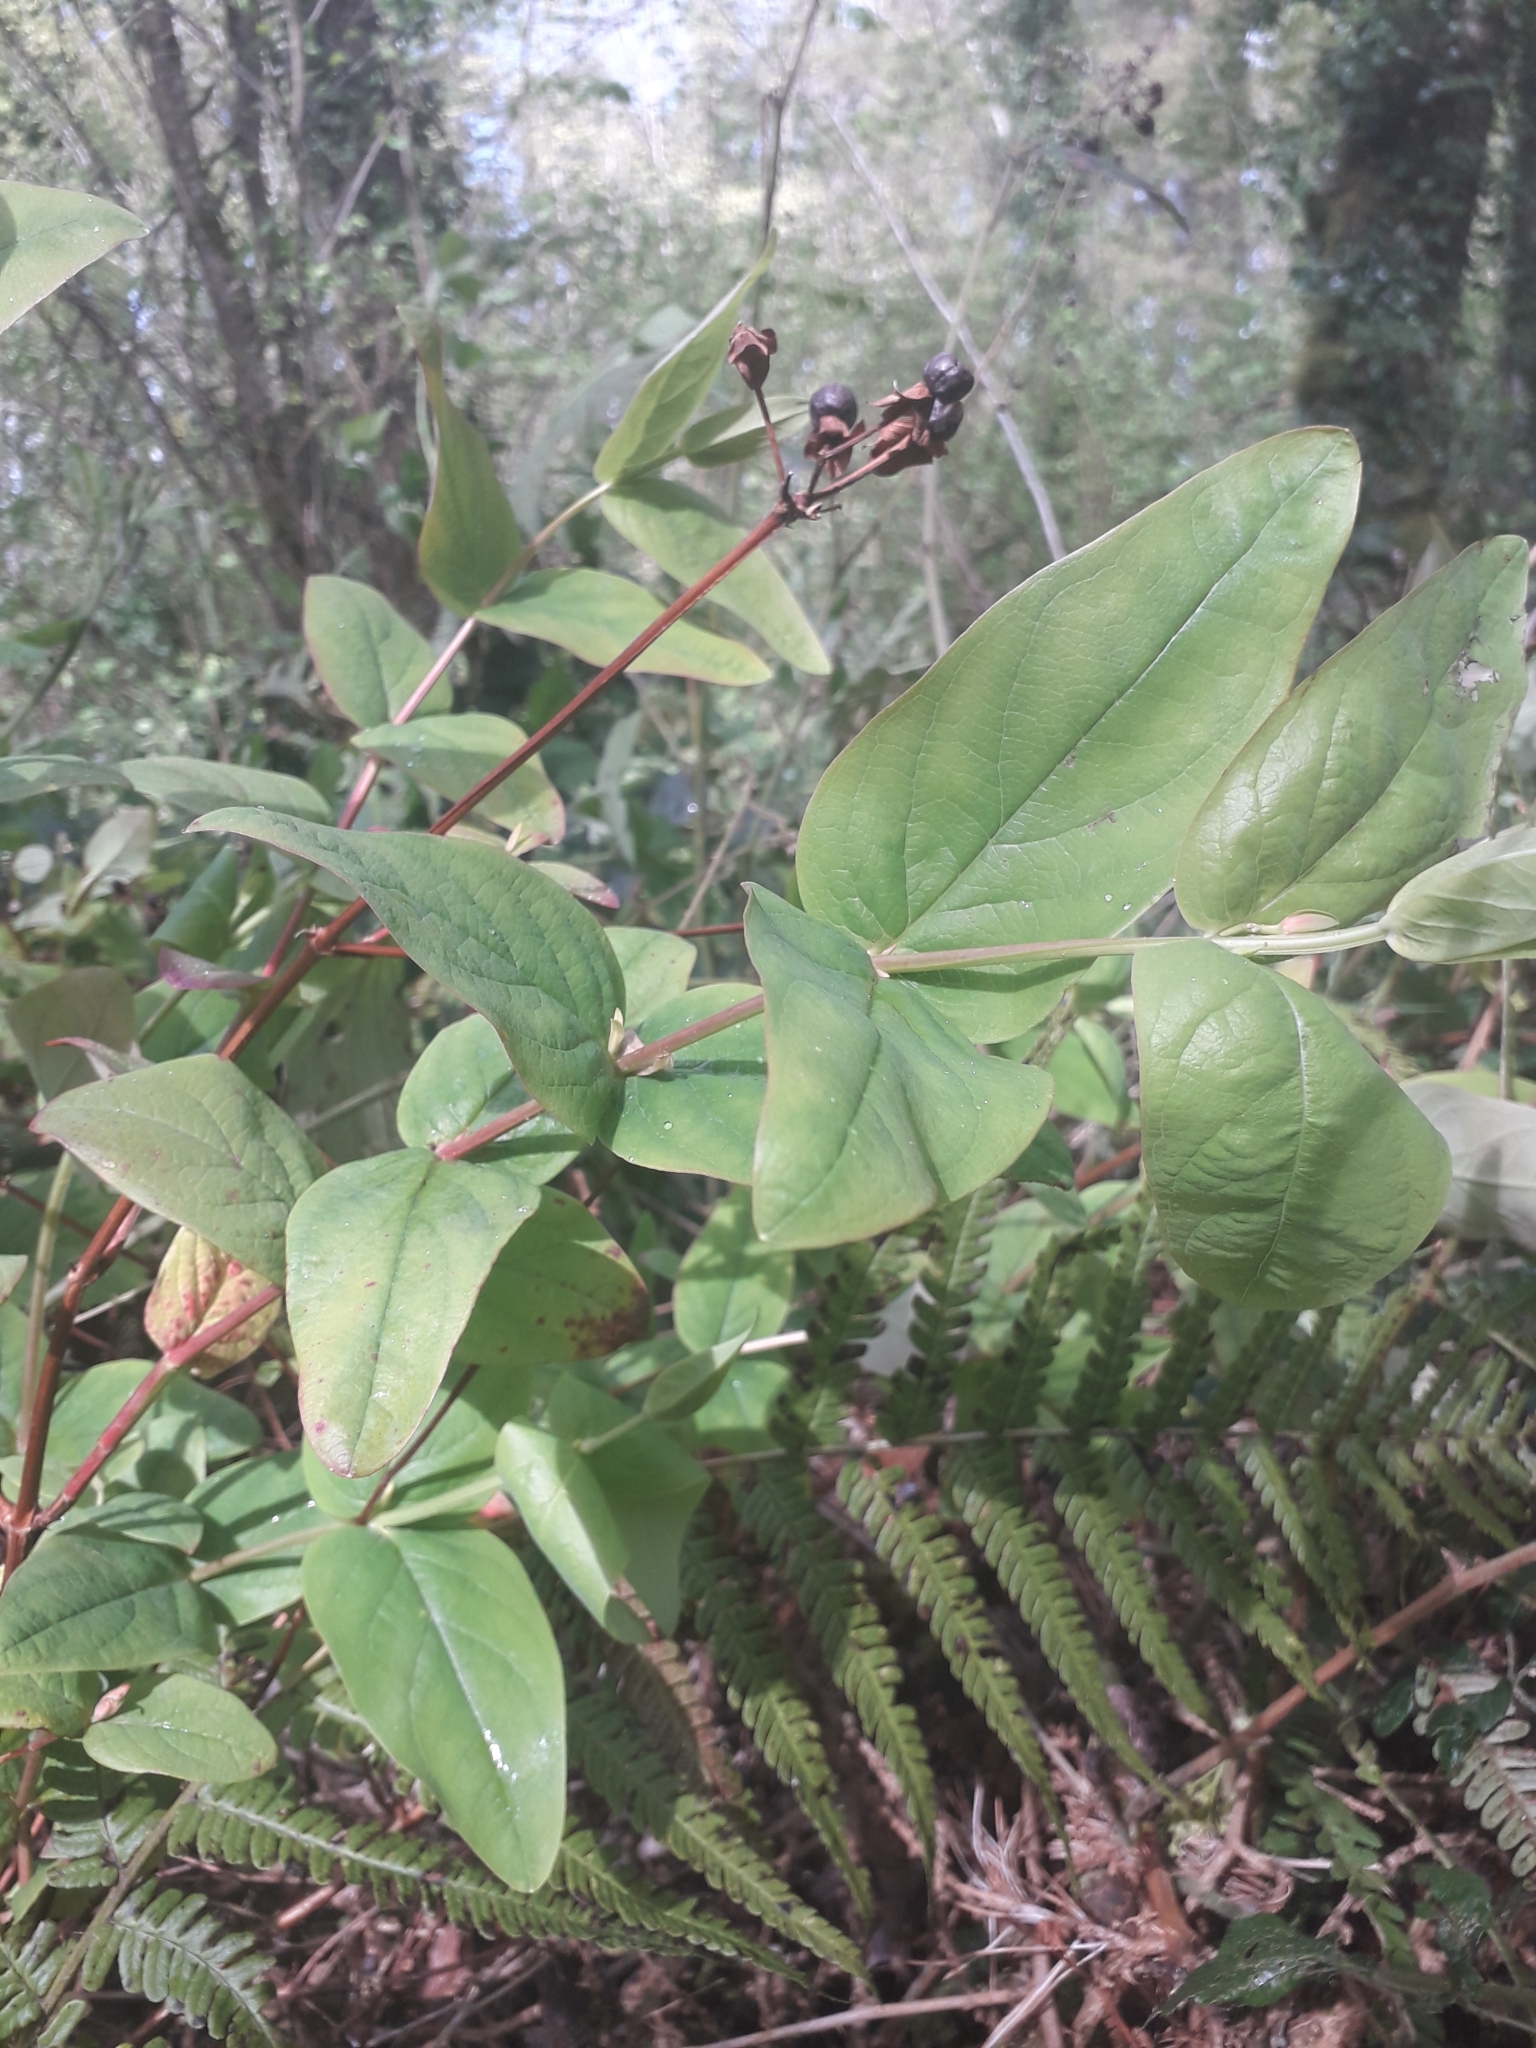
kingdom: Plantae
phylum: Tracheophyta
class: Magnoliopsida
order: Malpighiales
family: Hypericaceae
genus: Hypericum
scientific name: Hypericum androsaemum
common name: Sweet-amber
